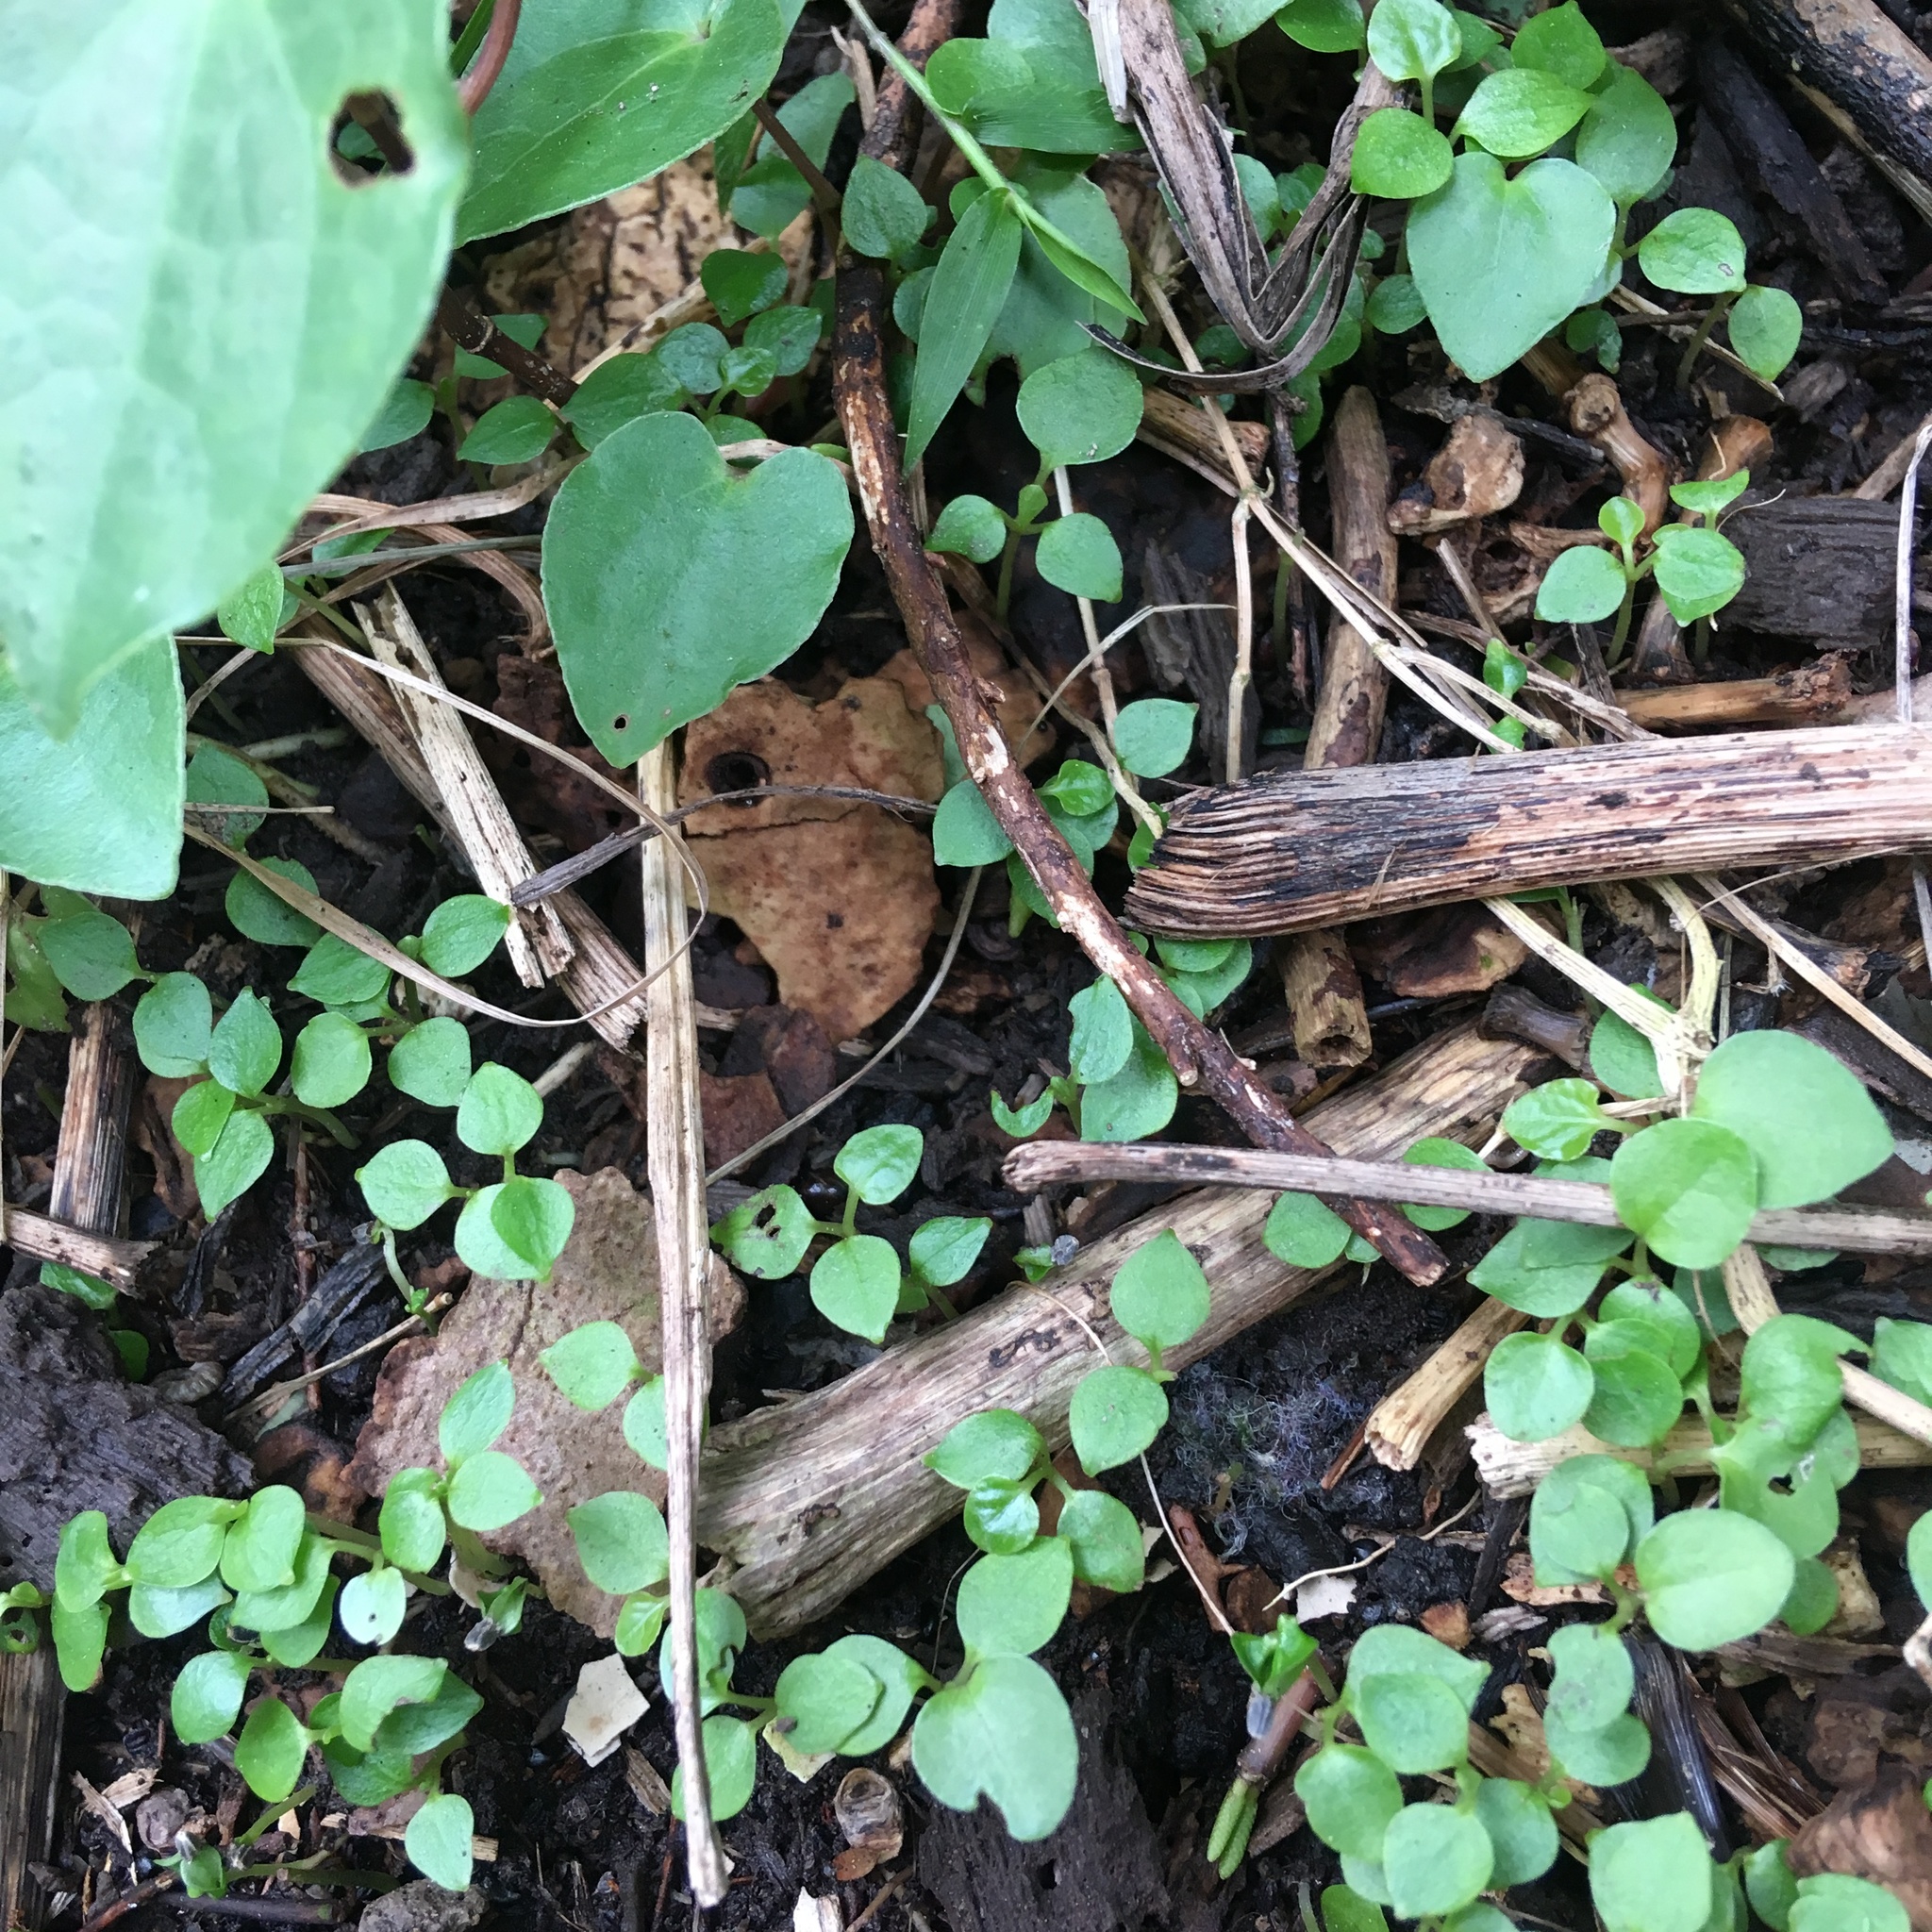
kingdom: Plantae
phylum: Tracheophyta
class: Magnoliopsida
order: Piperales
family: Piperaceae
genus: Macropiper
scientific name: Macropiper excelsum
